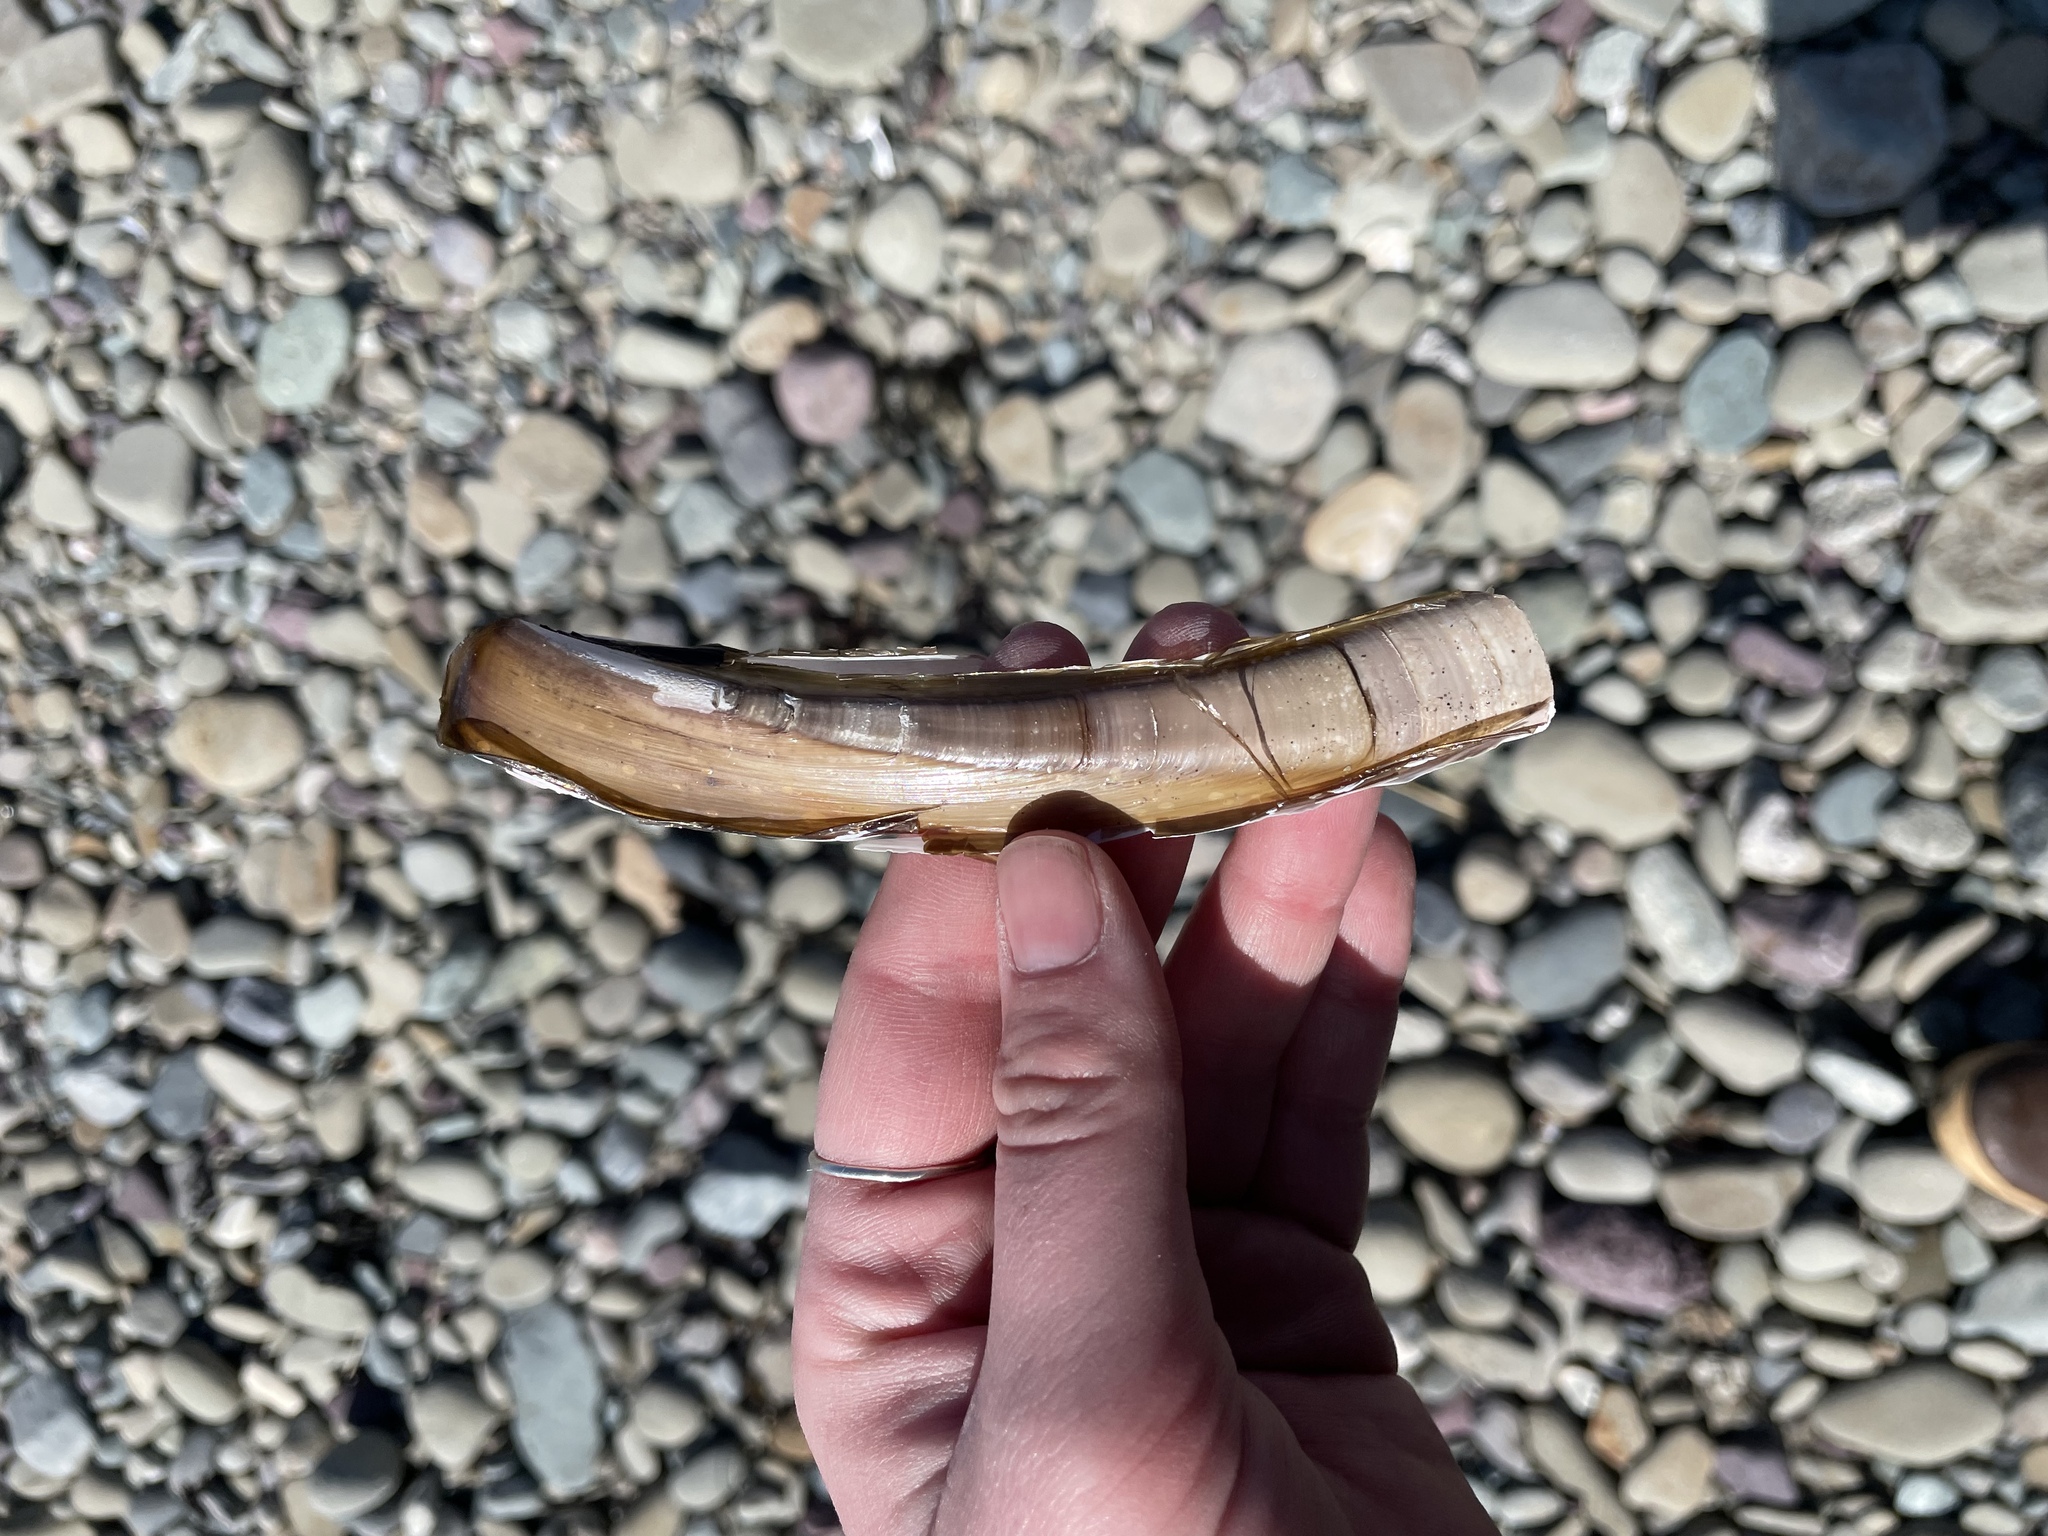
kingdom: Animalia
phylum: Mollusca
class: Bivalvia
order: Adapedonta
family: Pharidae
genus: Ensis
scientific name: Ensis leei
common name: American jack knife clam
